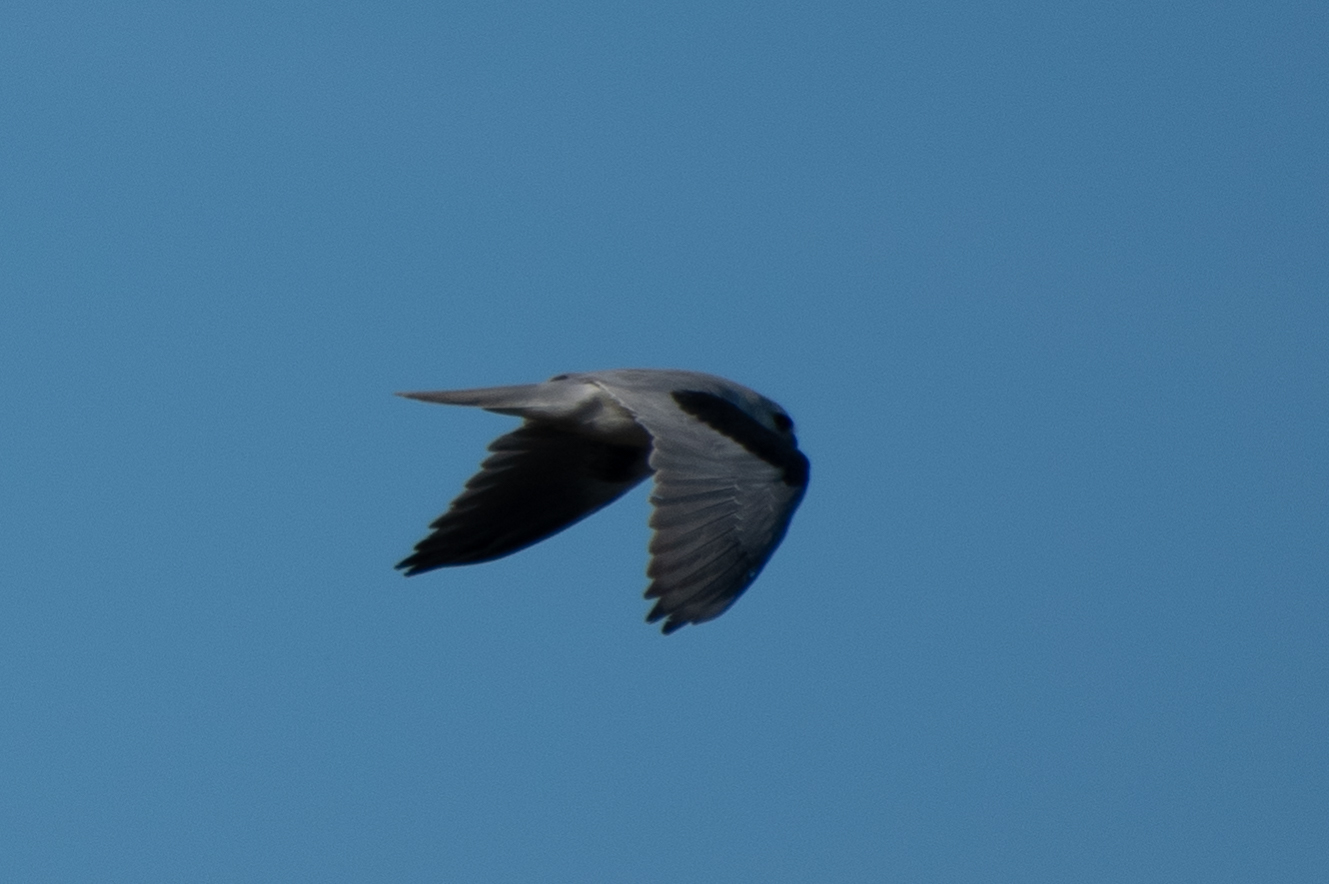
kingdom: Animalia
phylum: Chordata
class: Aves
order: Accipitriformes
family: Accipitridae
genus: Elanus
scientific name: Elanus leucurus
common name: White-tailed kite
